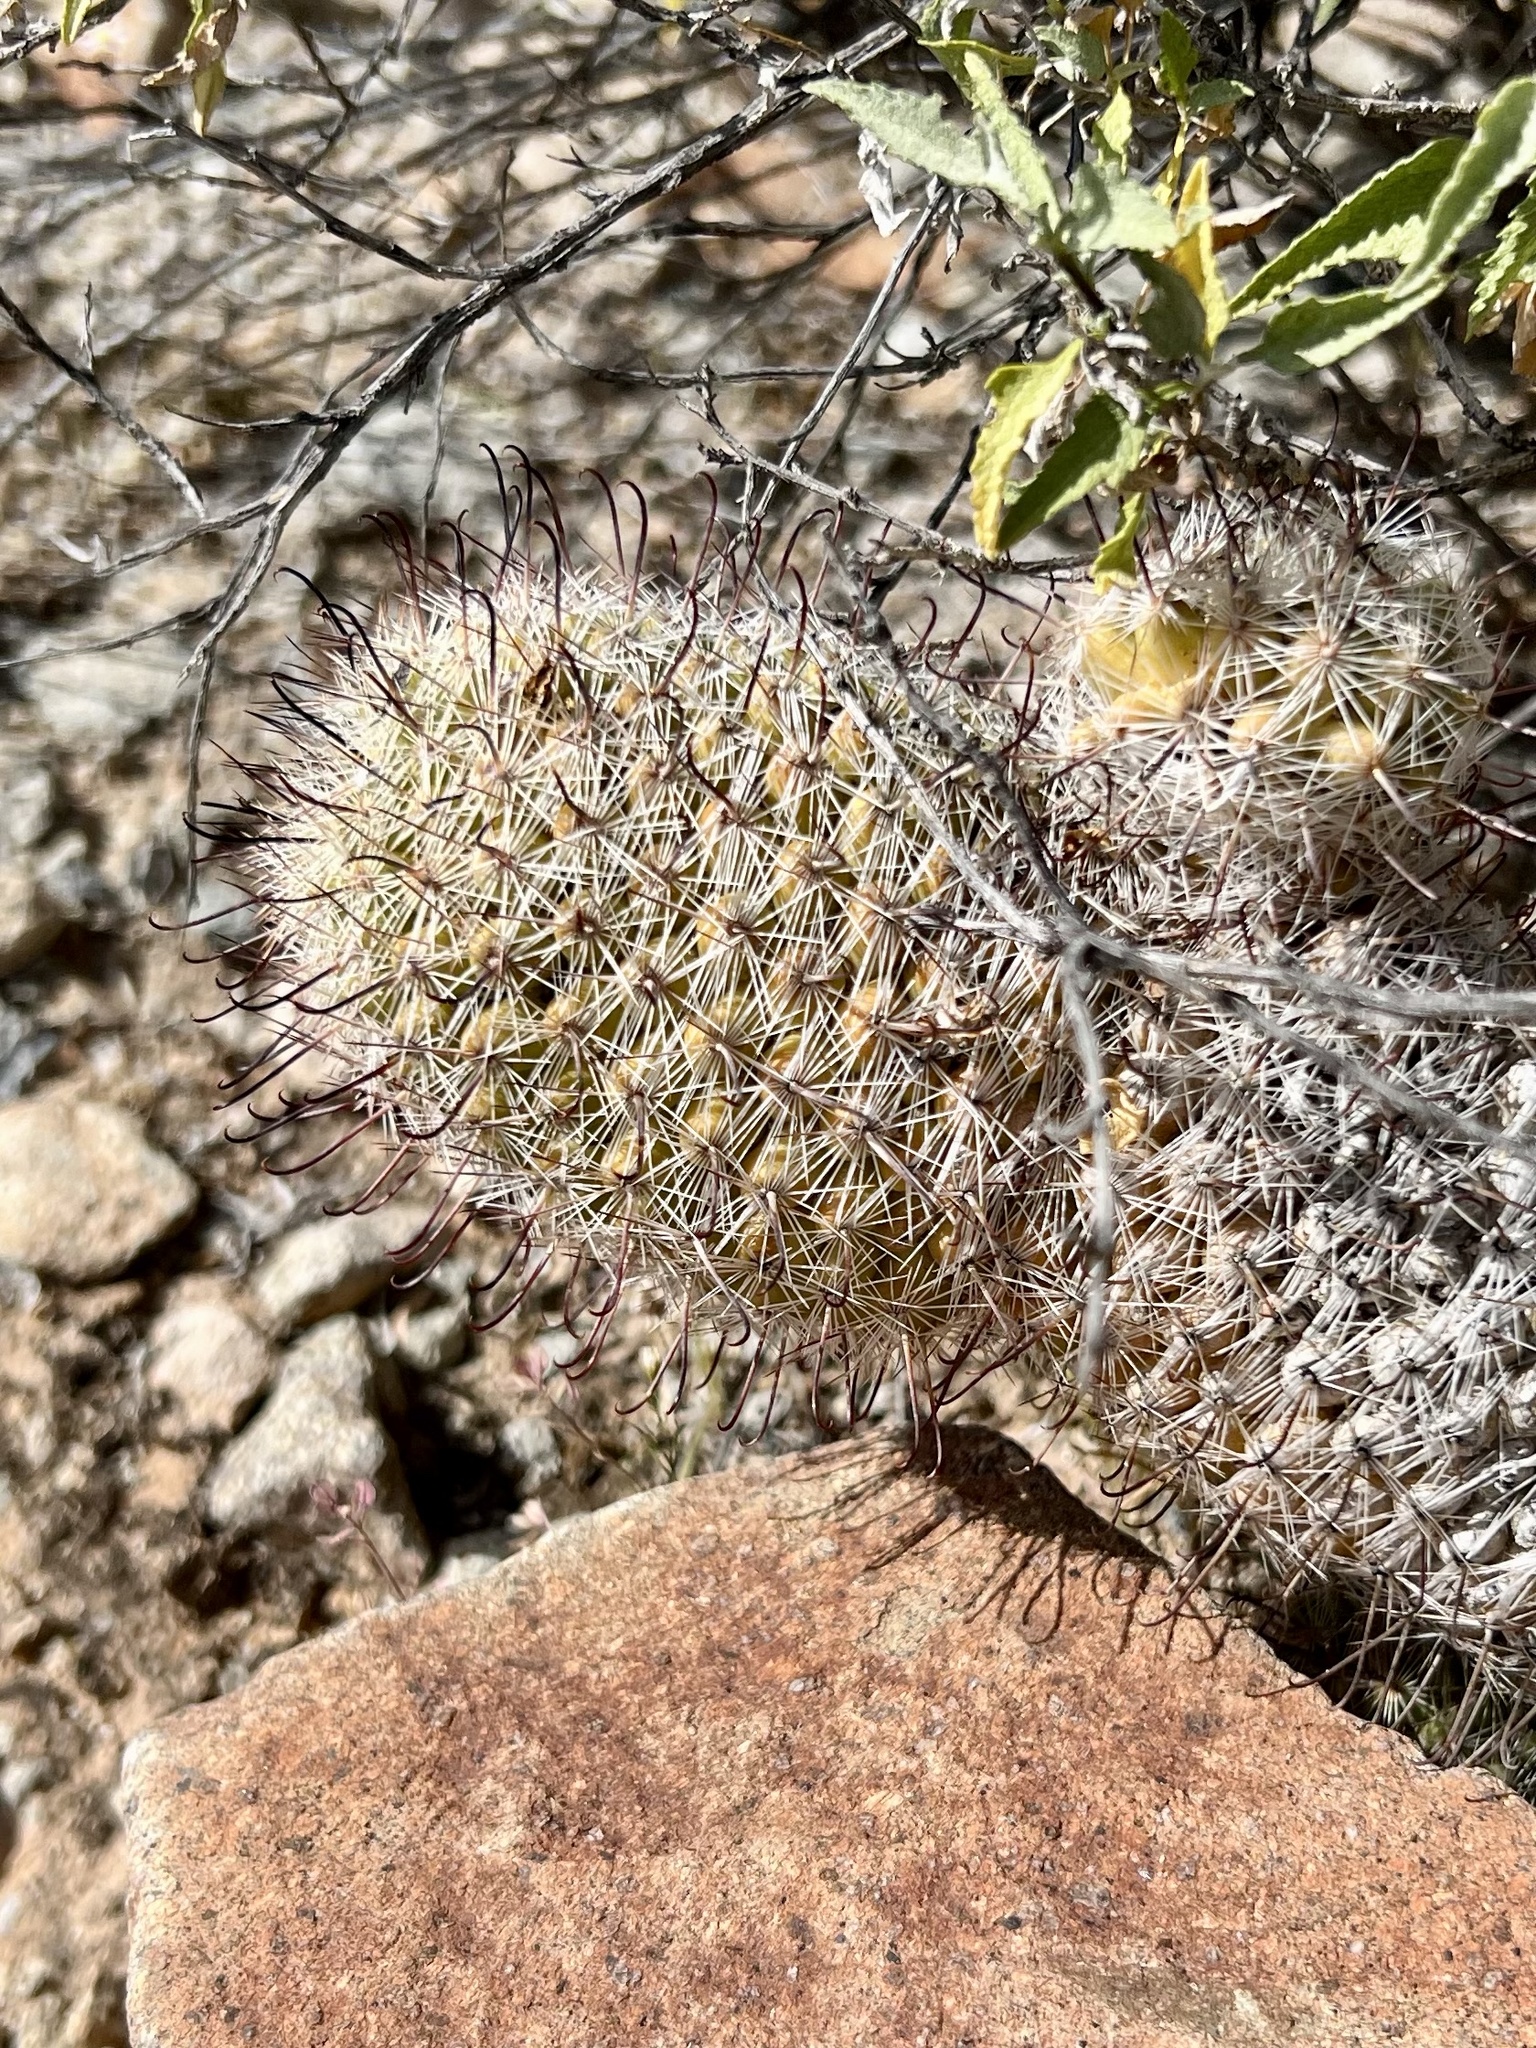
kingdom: Plantae
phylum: Tracheophyta
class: Magnoliopsida
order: Caryophyllales
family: Cactaceae
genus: Cochemiea
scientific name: Cochemiea grahamii
